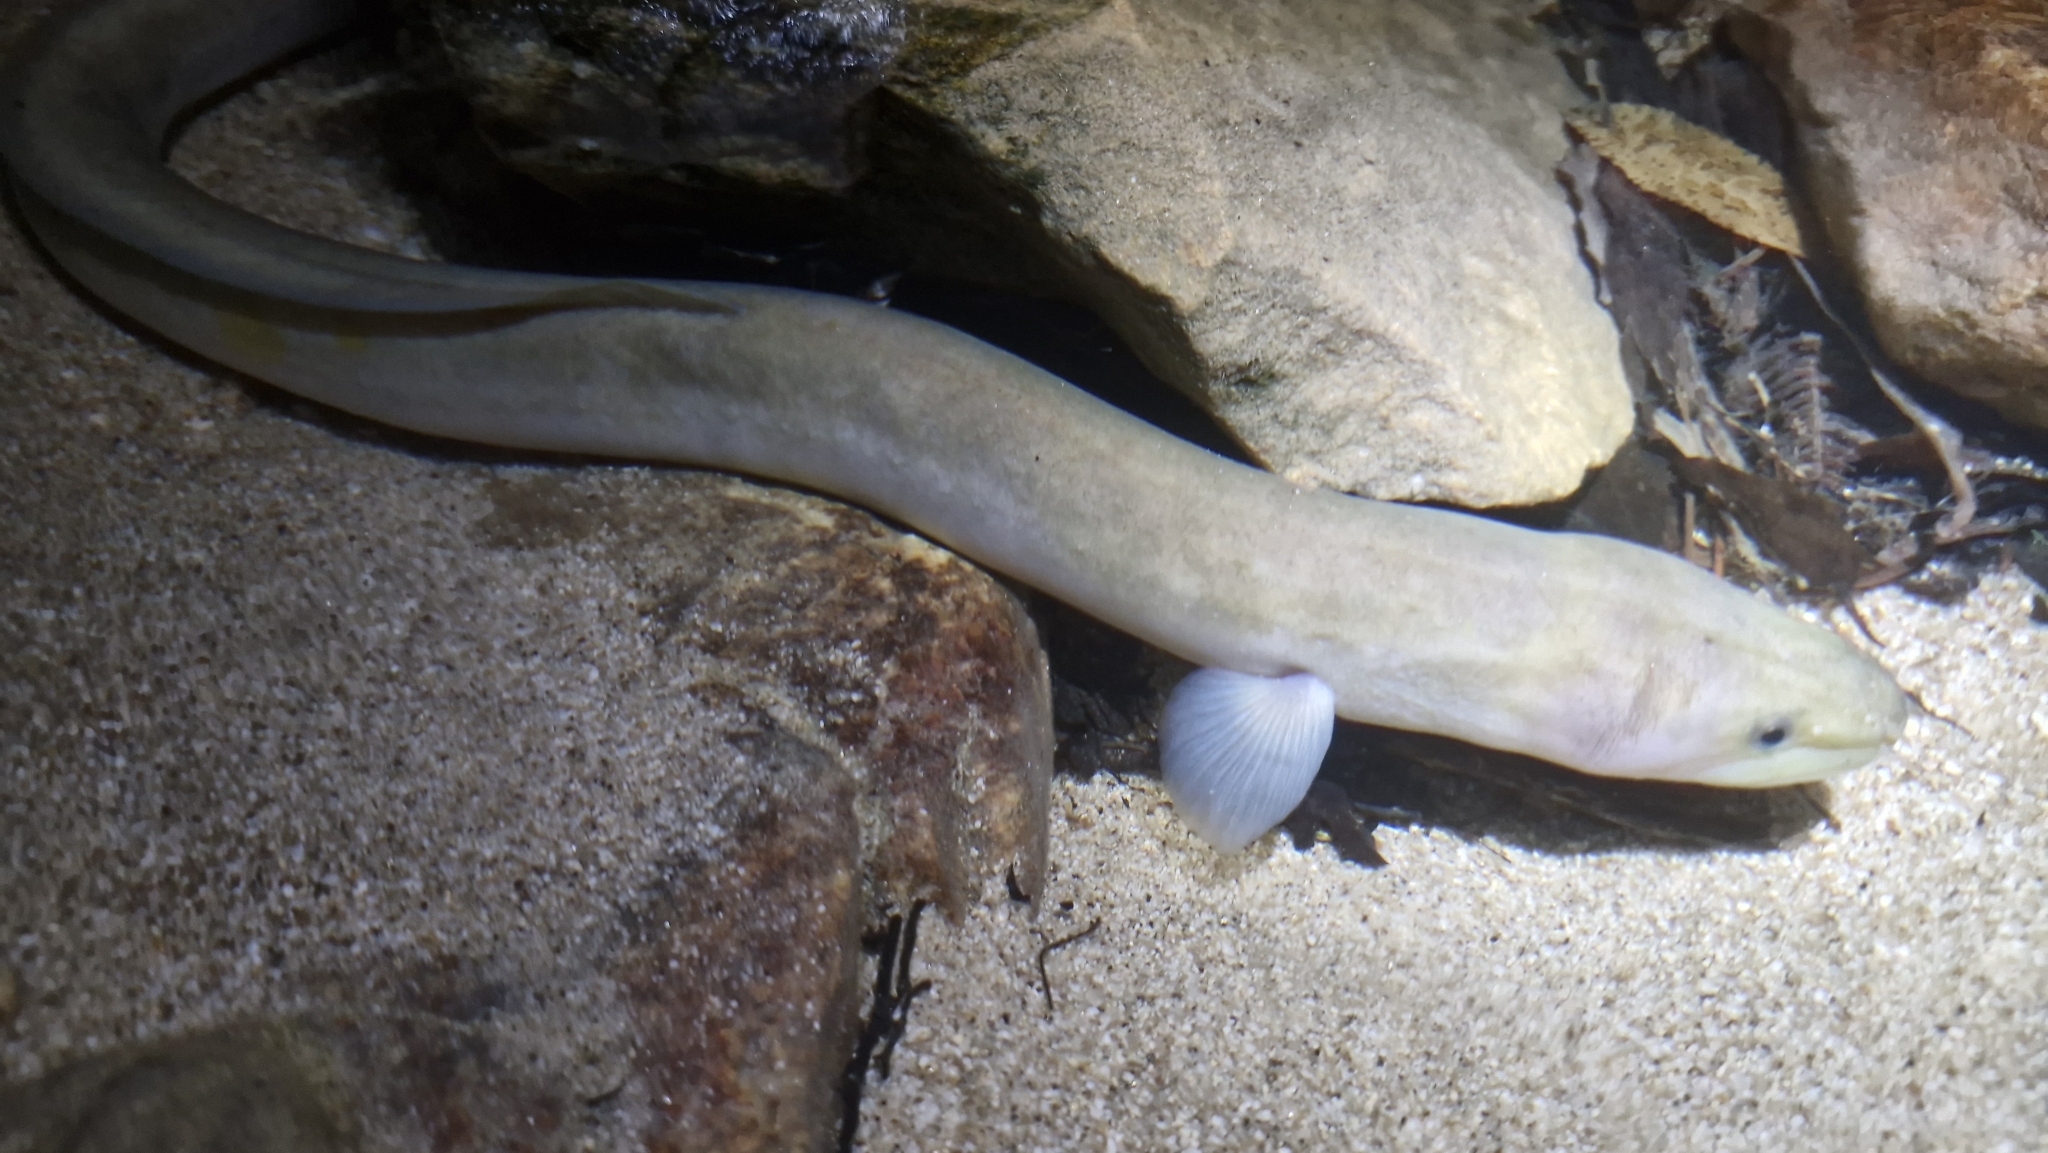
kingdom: Animalia
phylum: Chordata
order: Anguilliformes
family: Anguillidae
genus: Anguilla
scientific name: Anguilla dieffenbachii
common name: New zealand longfin eel
